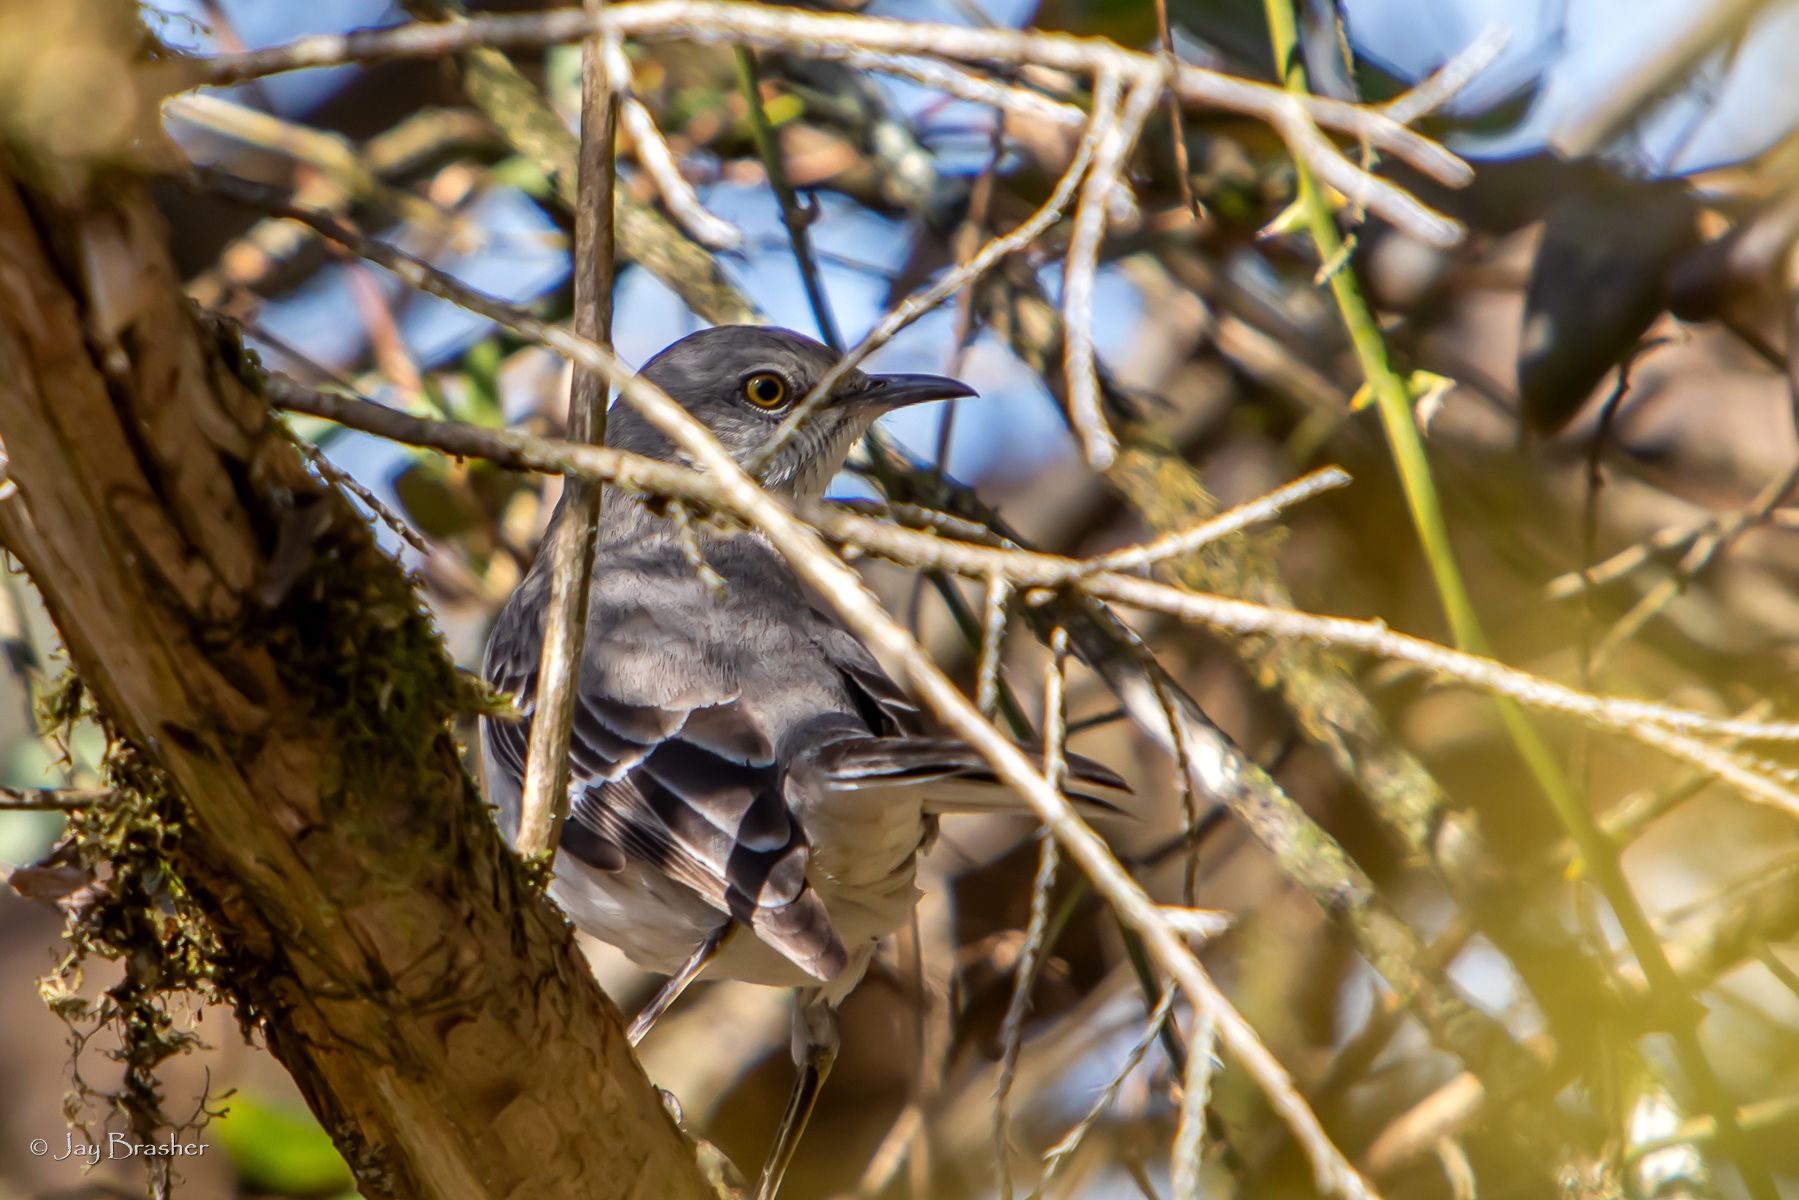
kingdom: Animalia
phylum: Chordata
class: Aves
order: Passeriformes
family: Mimidae
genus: Mimus
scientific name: Mimus polyglottos
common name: Northern mockingbird
